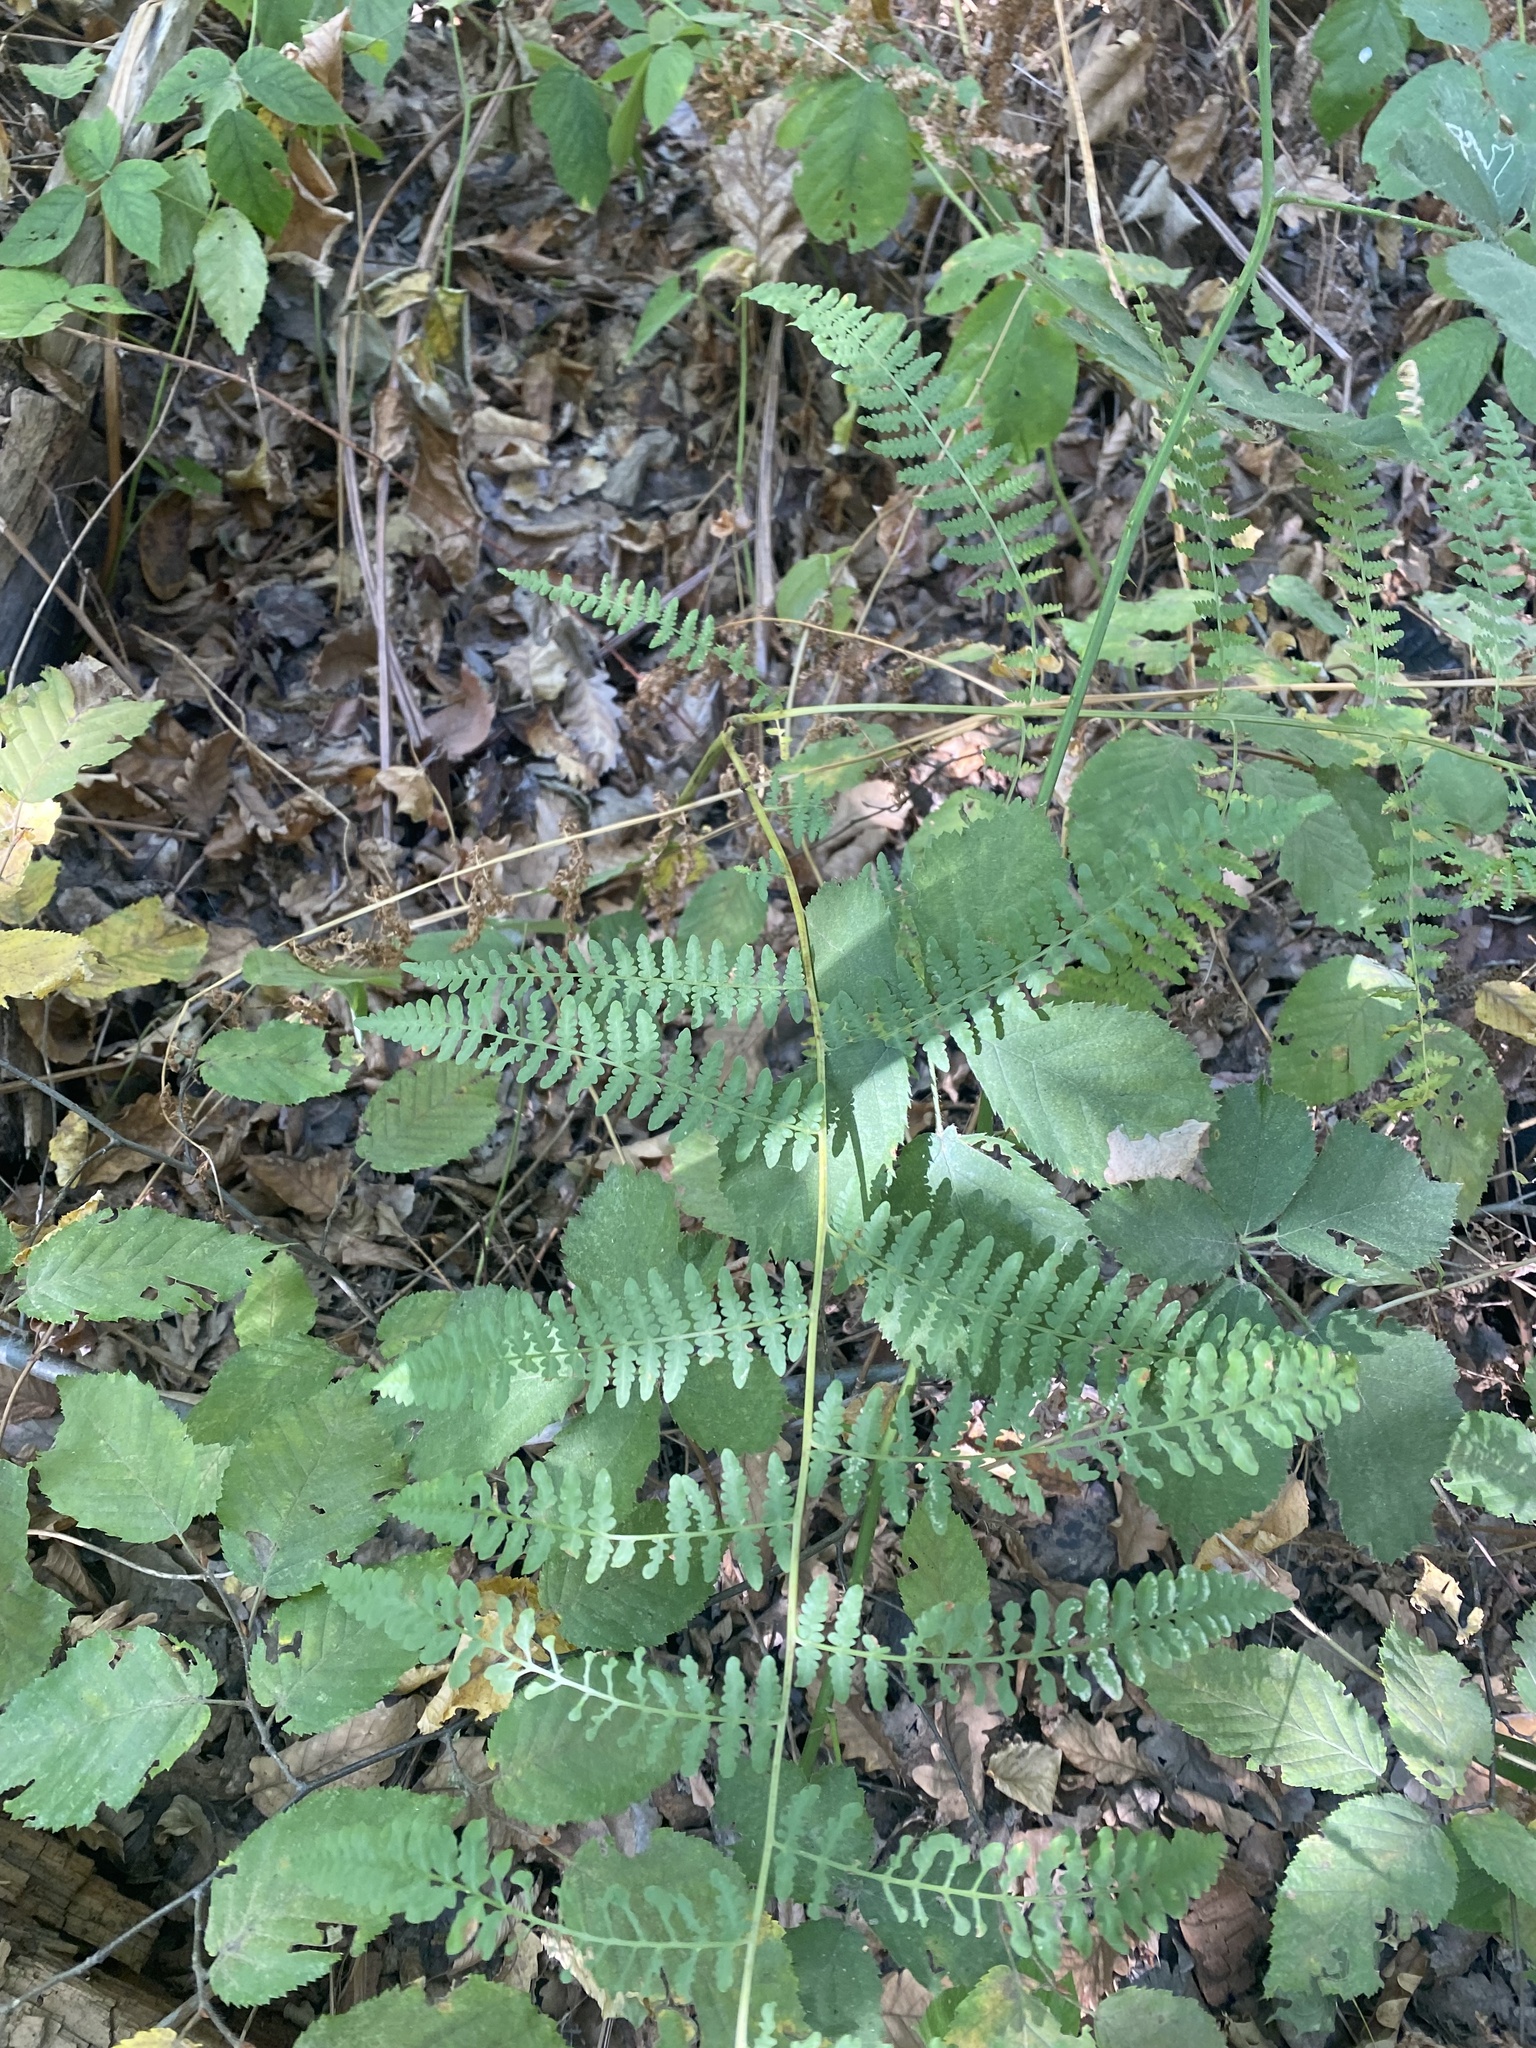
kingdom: Plantae
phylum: Tracheophyta
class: Polypodiopsida
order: Polypodiales
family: Dennstaedtiaceae
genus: Pteridium
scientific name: Pteridium tauricum
